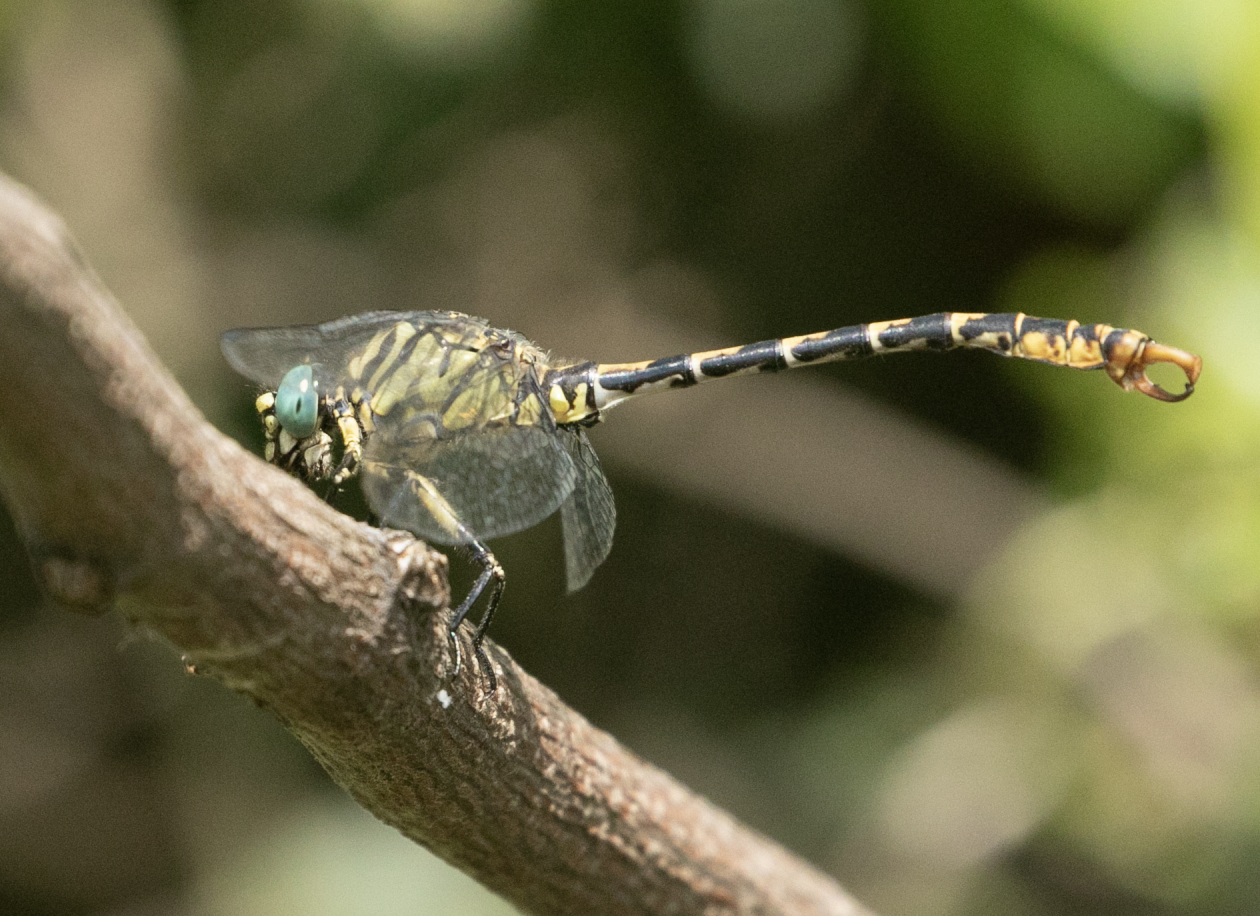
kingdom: Animalia
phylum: Arthropoda
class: Insecta
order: Odonata
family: Gomphidae
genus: Onychogomphus
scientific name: Onychogomphus forcipatus
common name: Small pincertail
